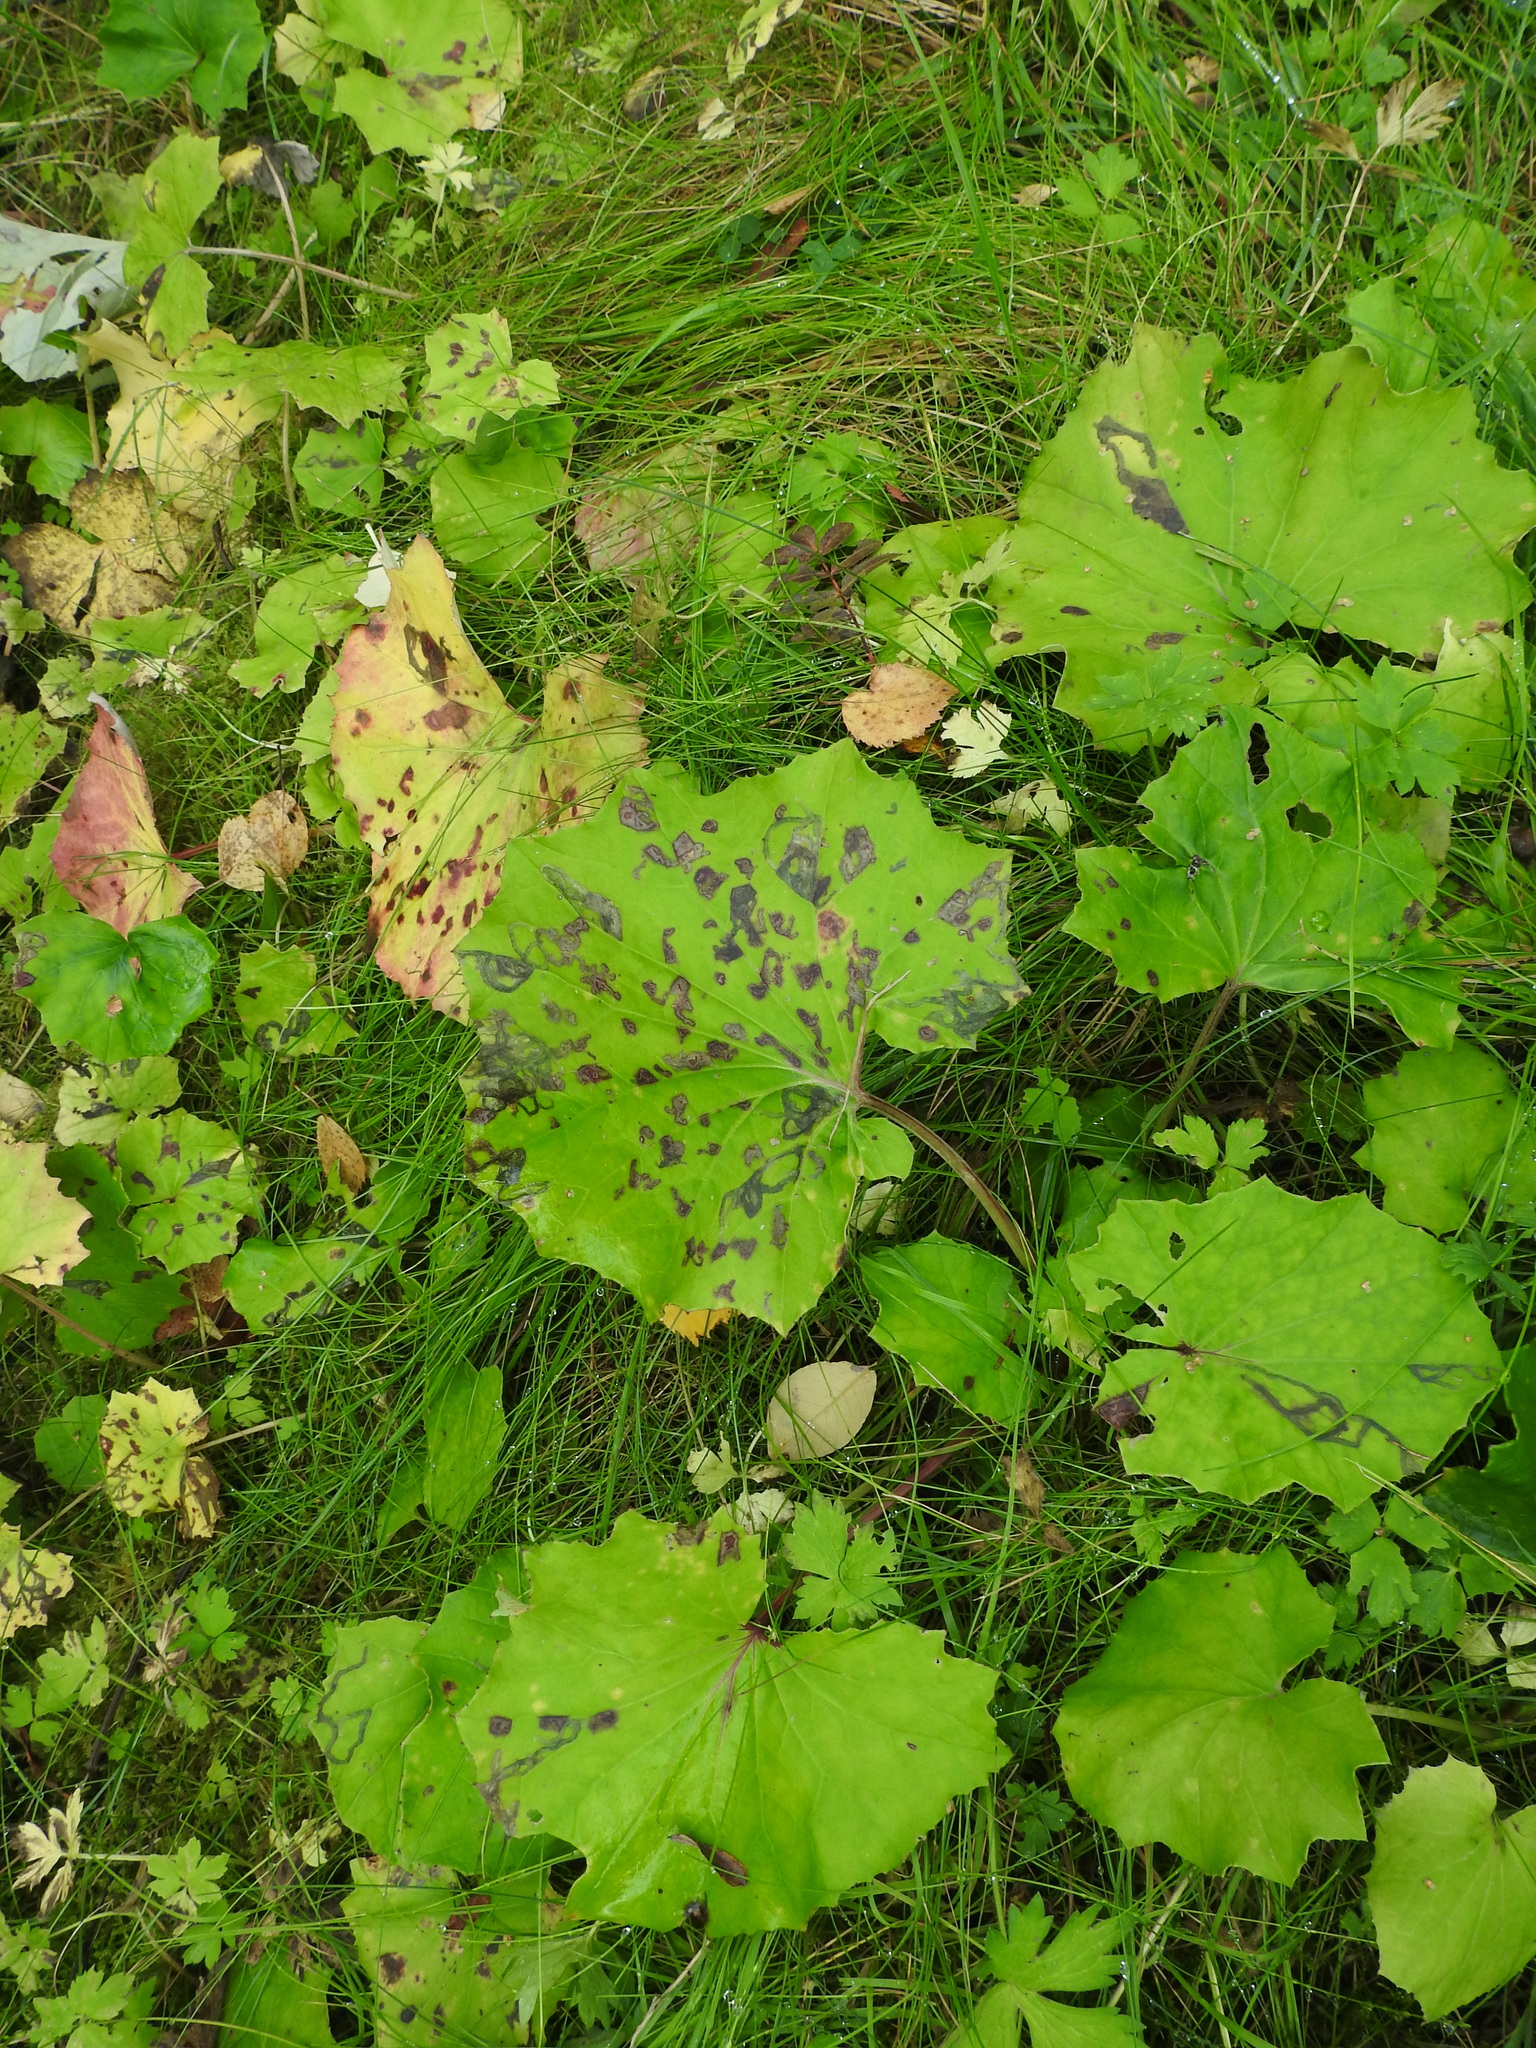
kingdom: Plantae
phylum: Tracheophyta
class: Magnoliopsida
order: Asterales
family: Asteraceae
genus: Tussilago
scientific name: Tussilago farfara
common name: Coltsfoot
